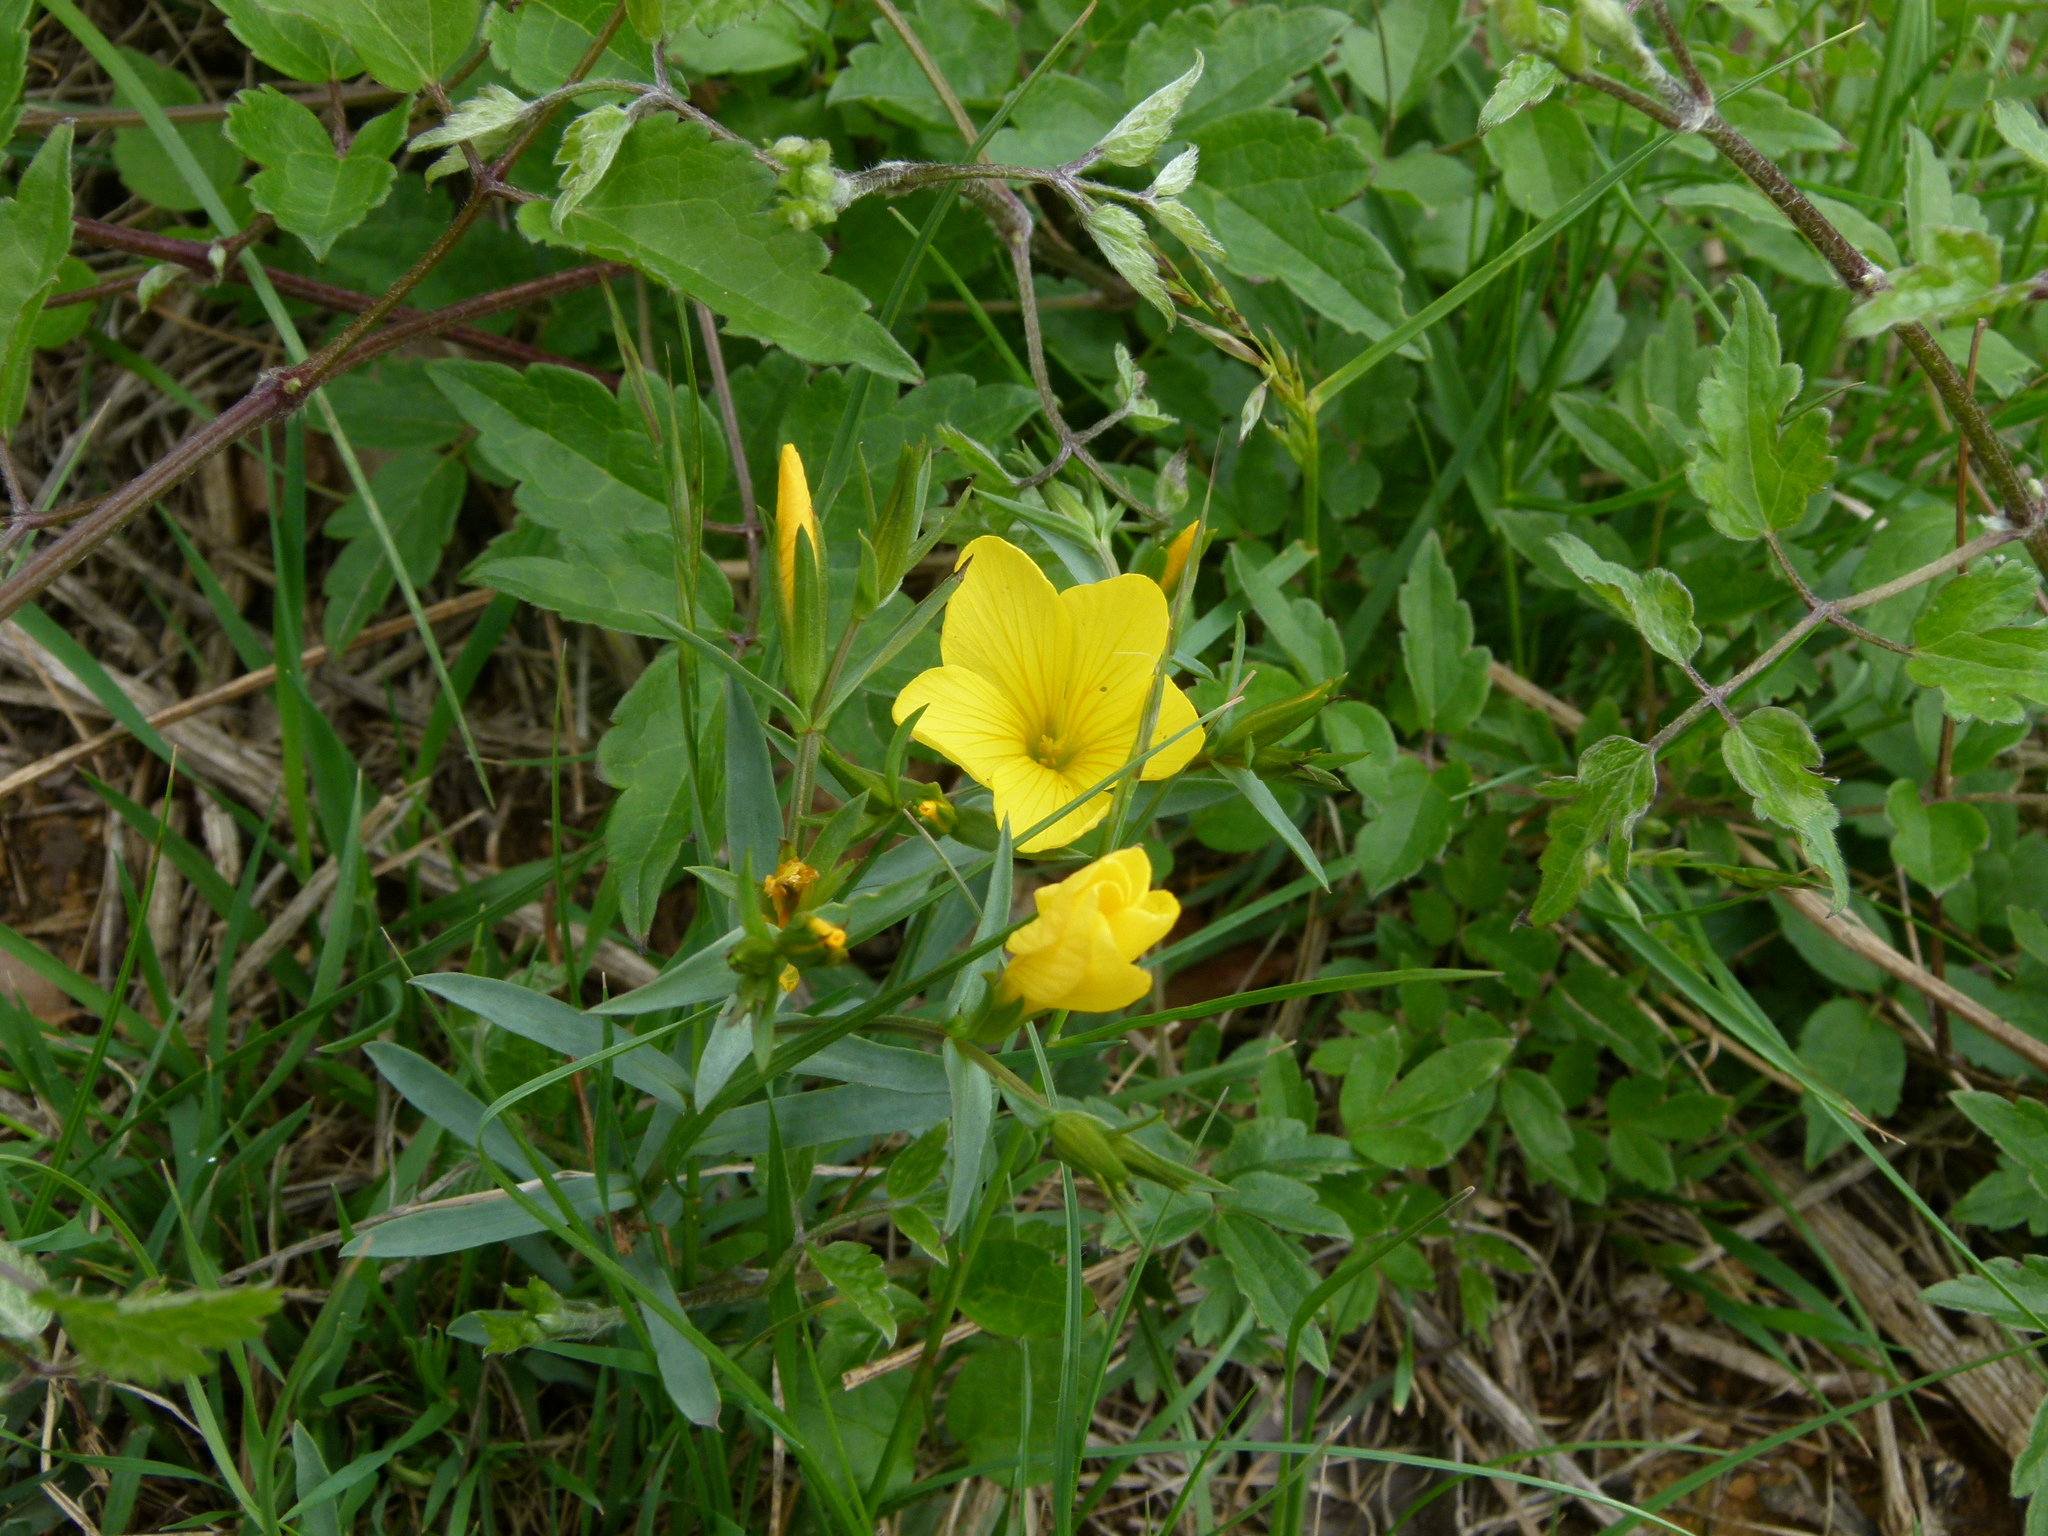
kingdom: Plantae
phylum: Tracheophyta
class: Magnoliopsida
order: Malpighiales
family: Linaceae
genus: Linum
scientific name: Linum campanulatum
